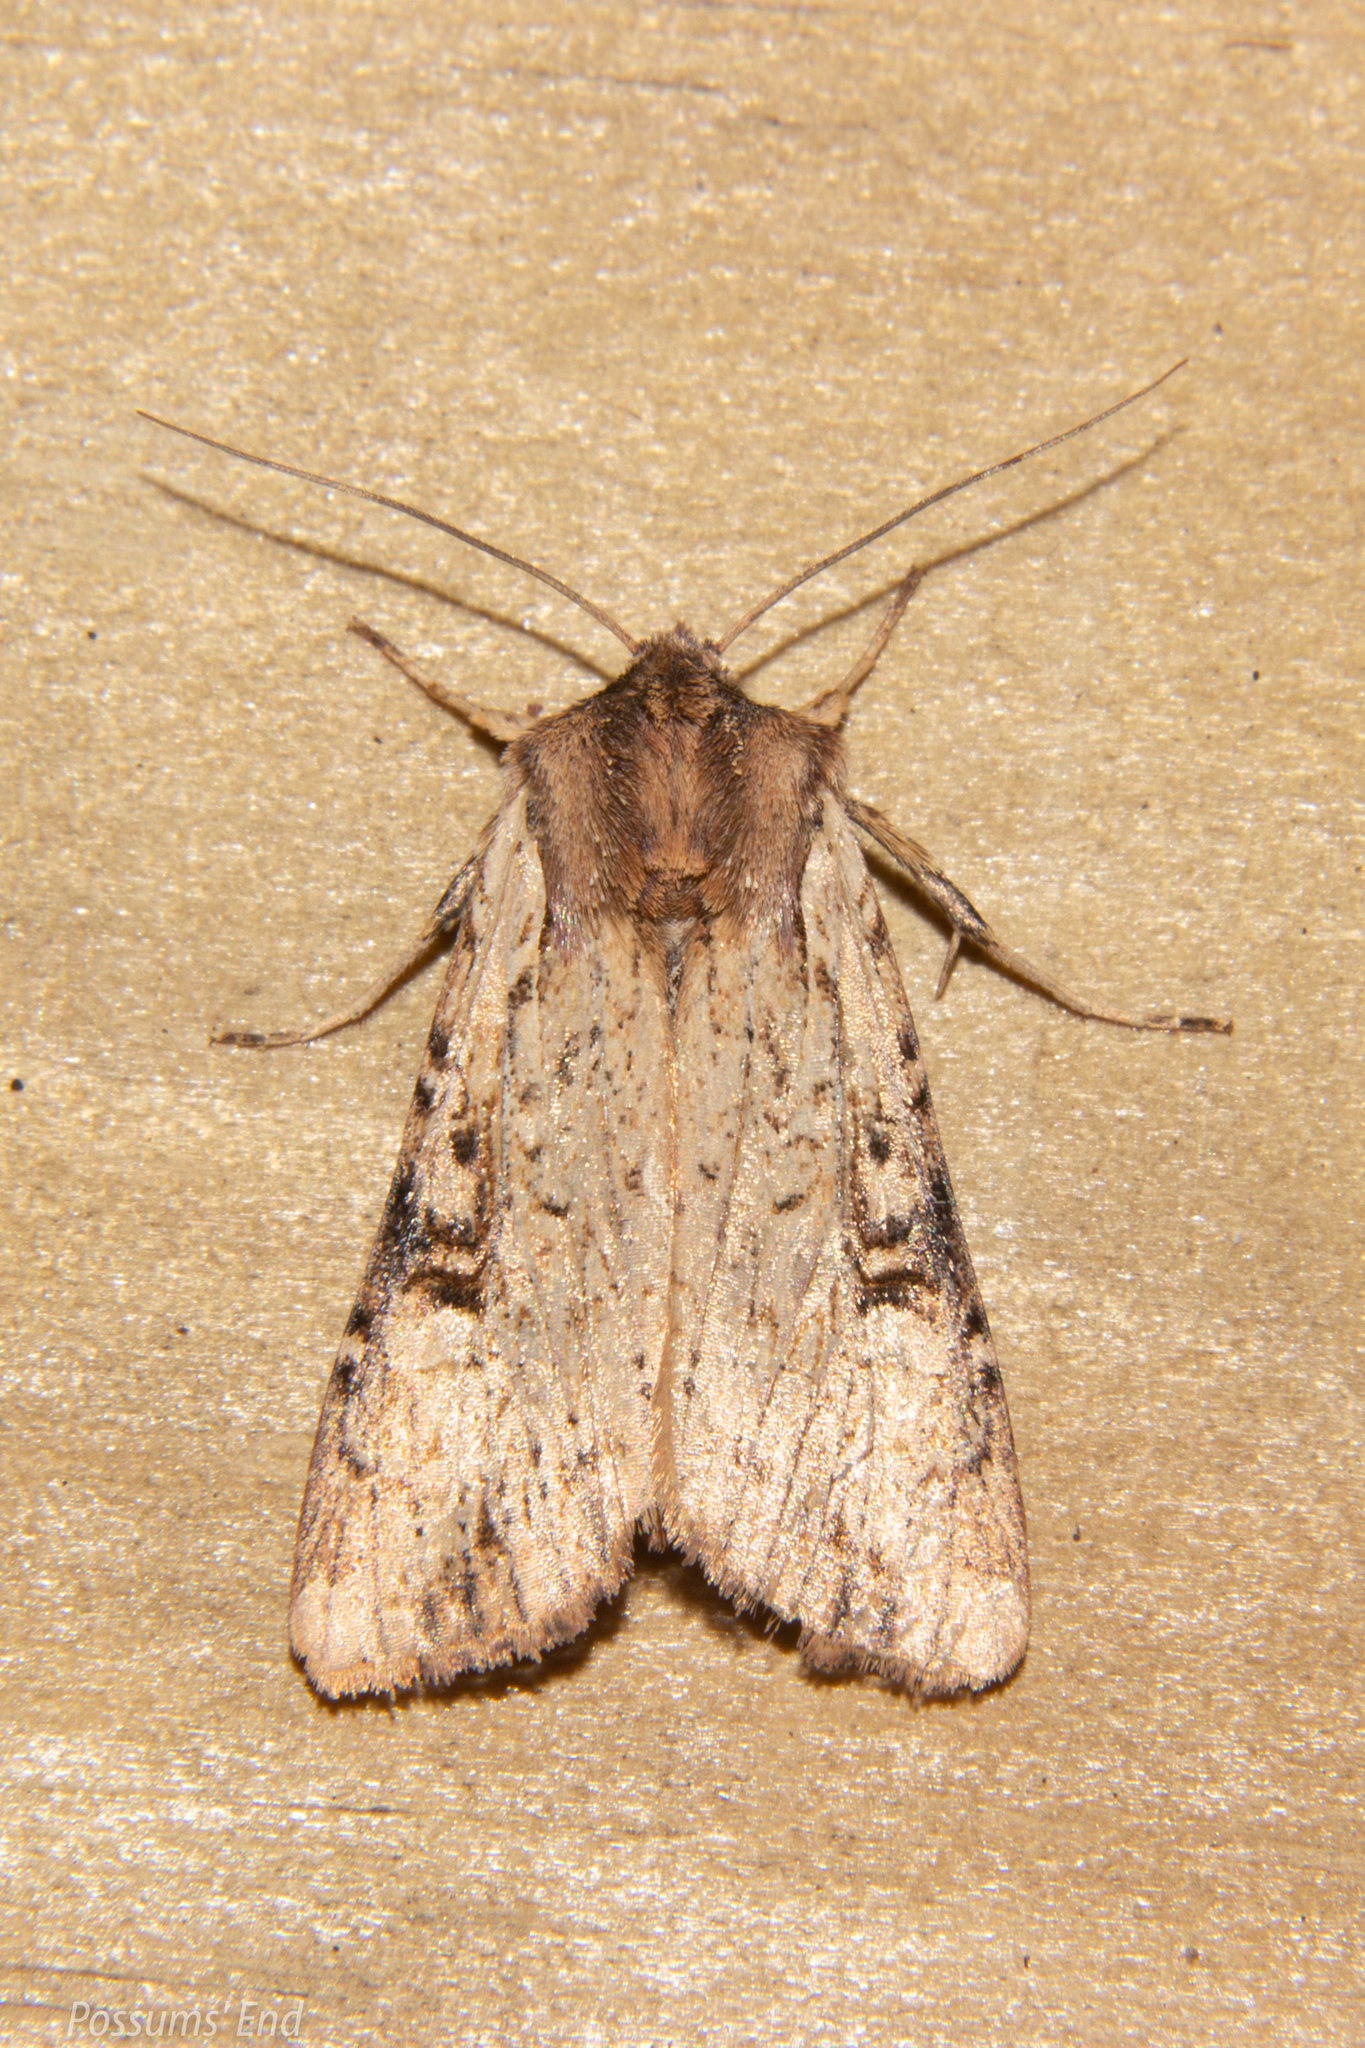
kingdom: Animalia
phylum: Arthropoda
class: Insecta
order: Lepidoptera
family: Noctuidae
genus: Ichneutica
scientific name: Ichneutica omoplaca
